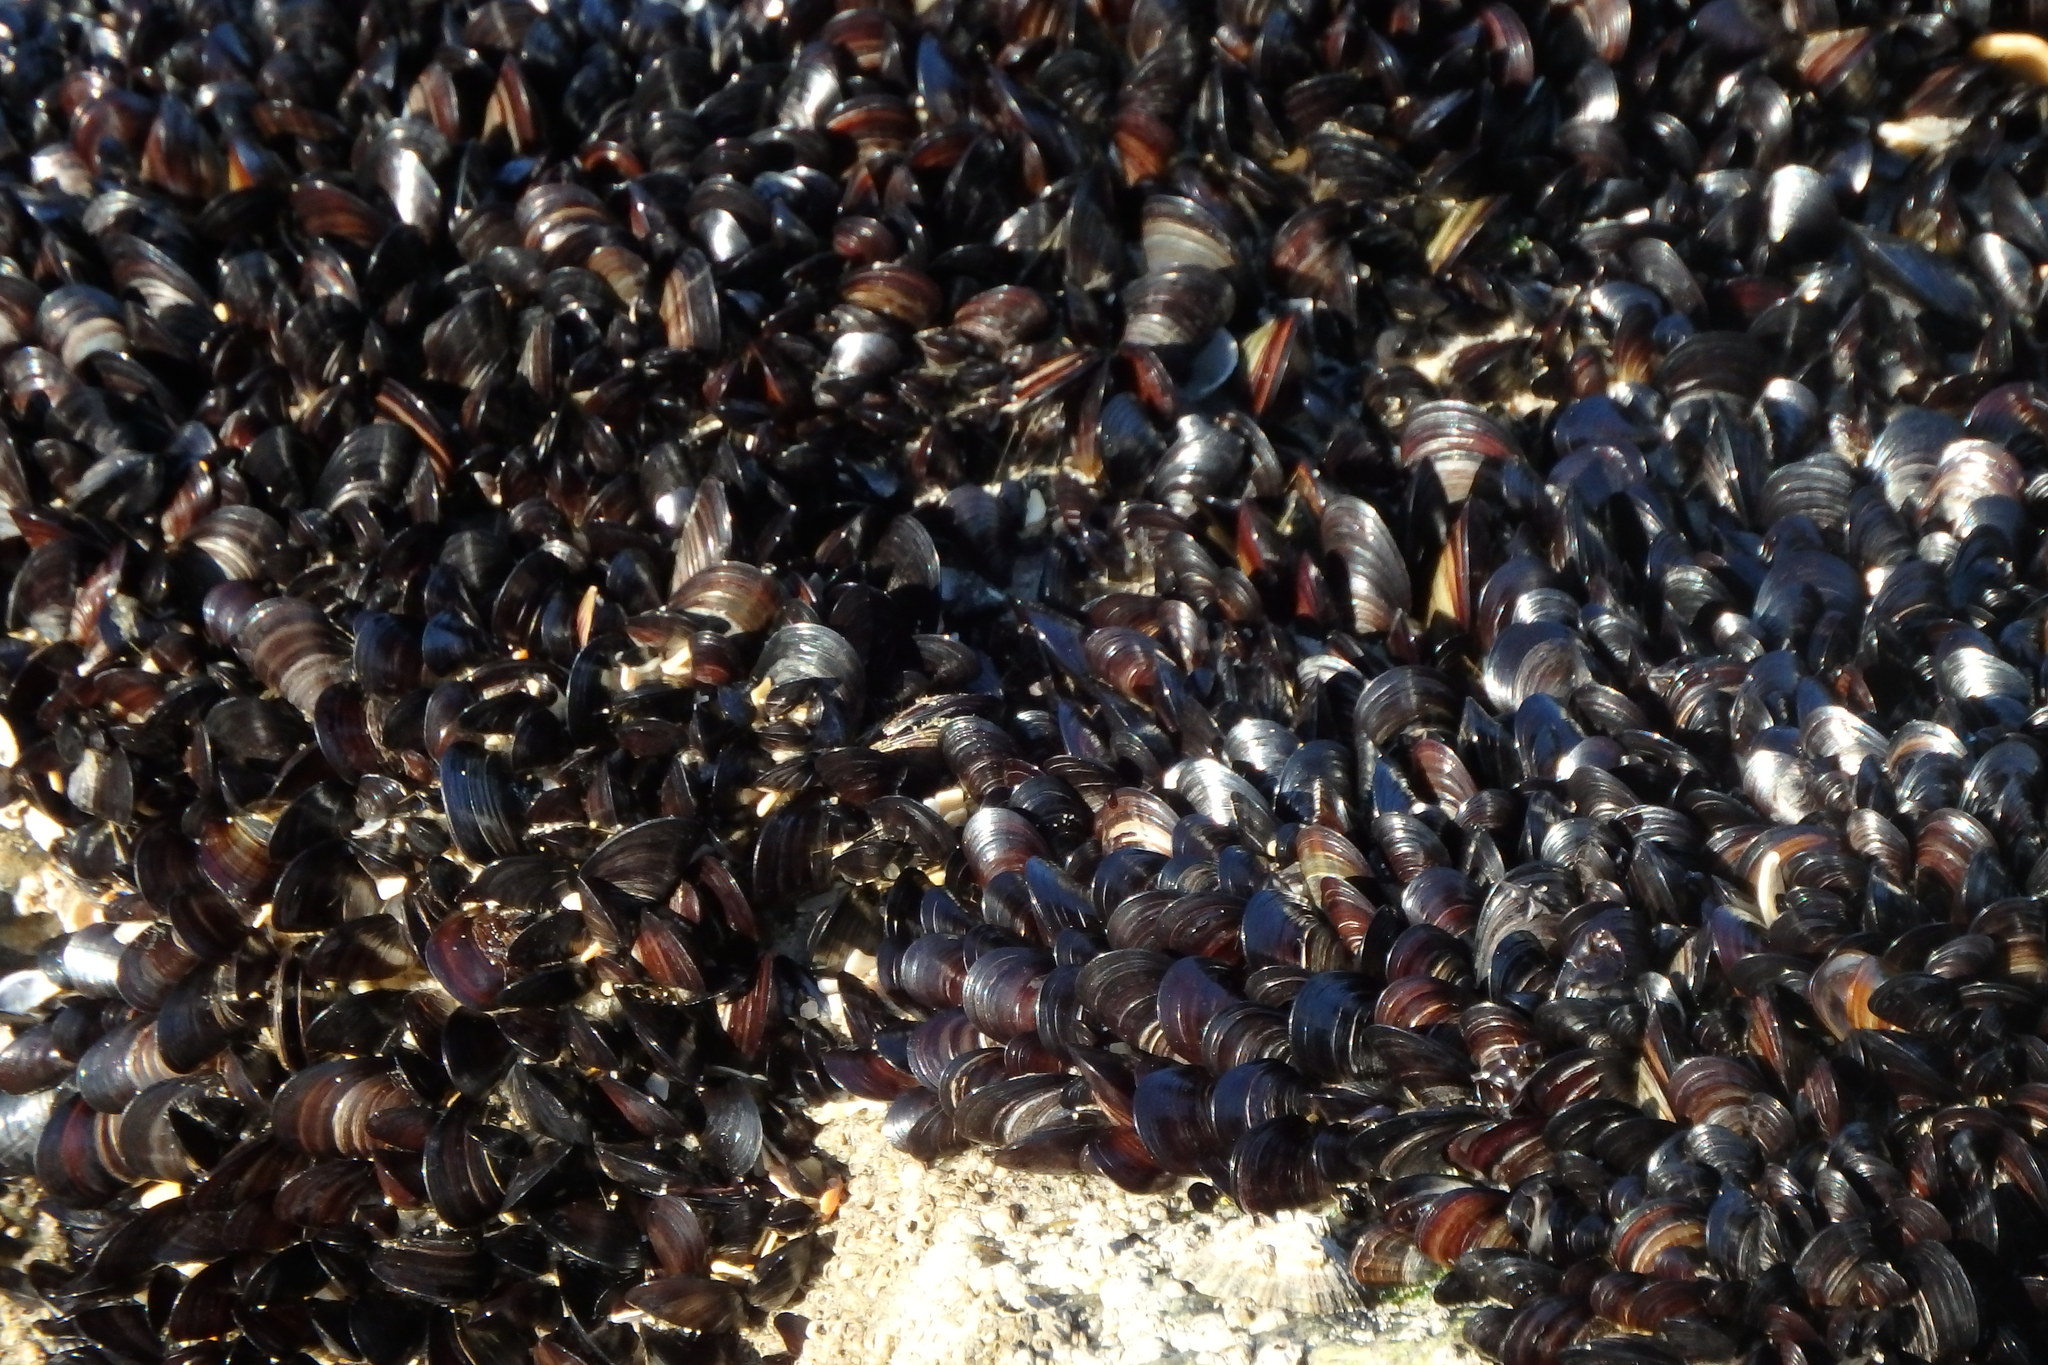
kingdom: Animalia
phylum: Mollusca
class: Bivalvia
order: Mytilida
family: Mytilidae
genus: Mytilus
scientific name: Mytilus galloprovincialis
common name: Mediterranean mussel
